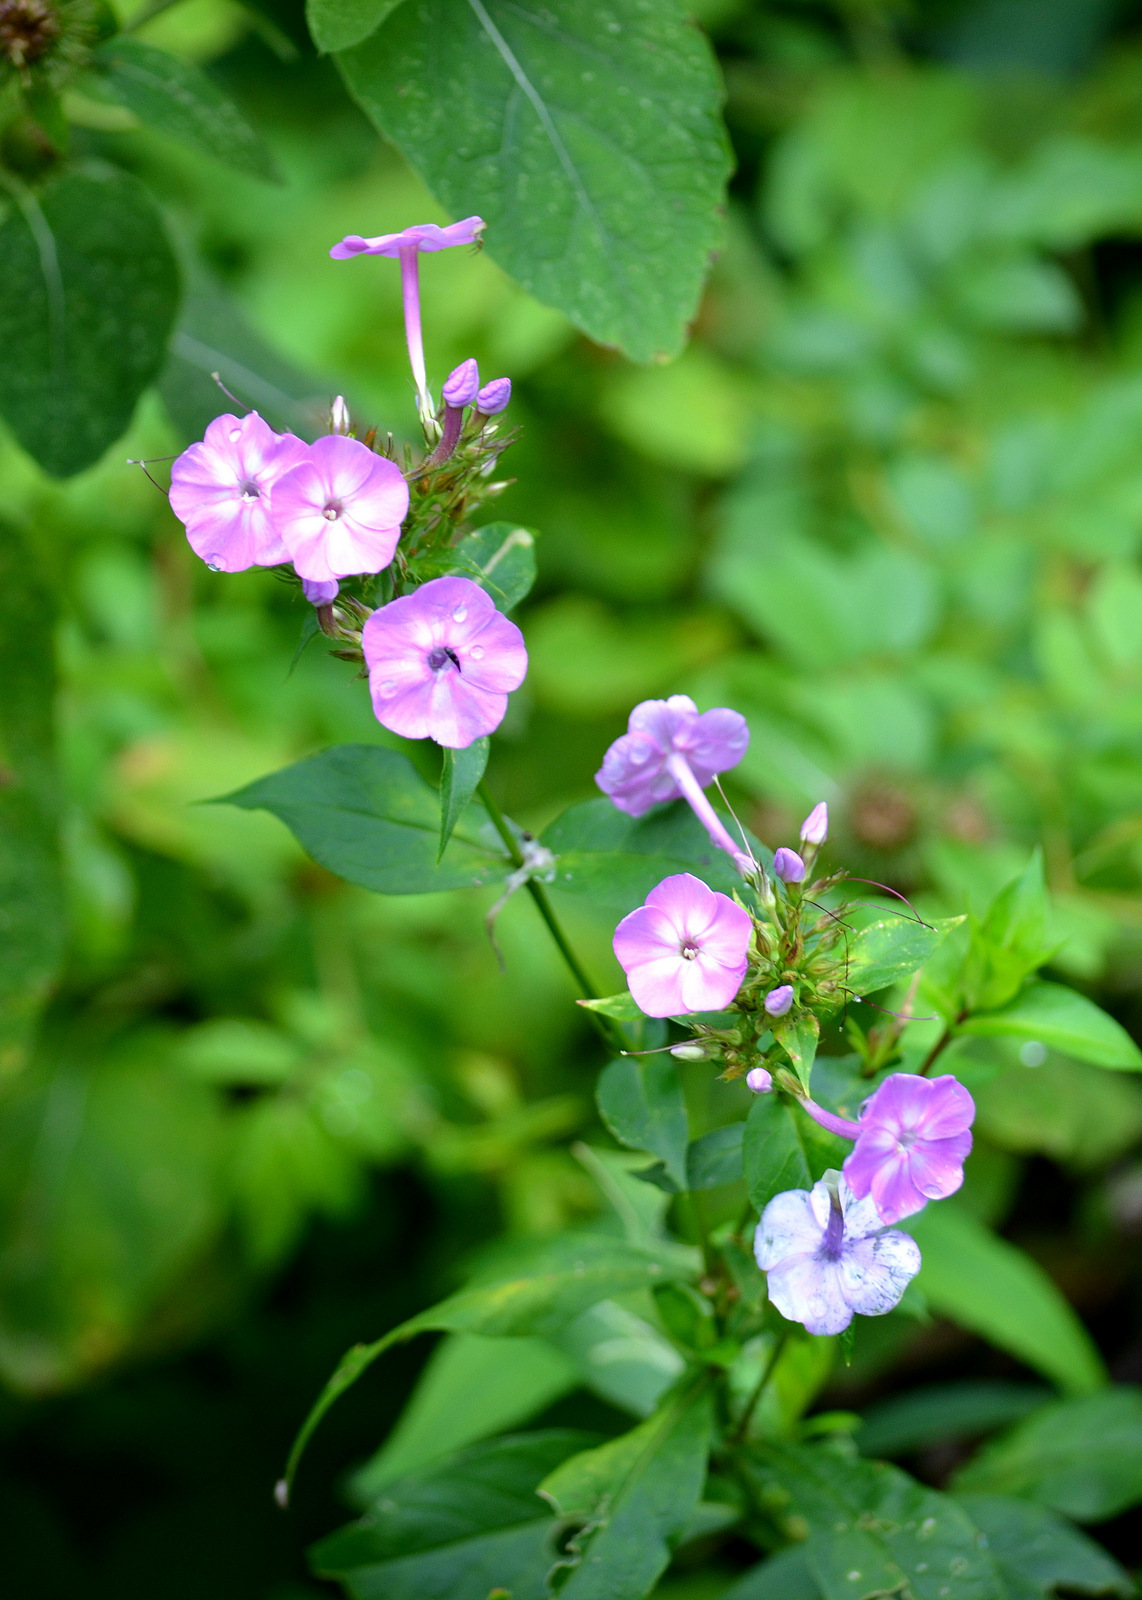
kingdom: Plantae
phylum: Tracheophyta
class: Magnoliopsida
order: Ericales
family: Polemoniaceae
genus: Phlox
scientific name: Phlox paniculata
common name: Fall phlox
